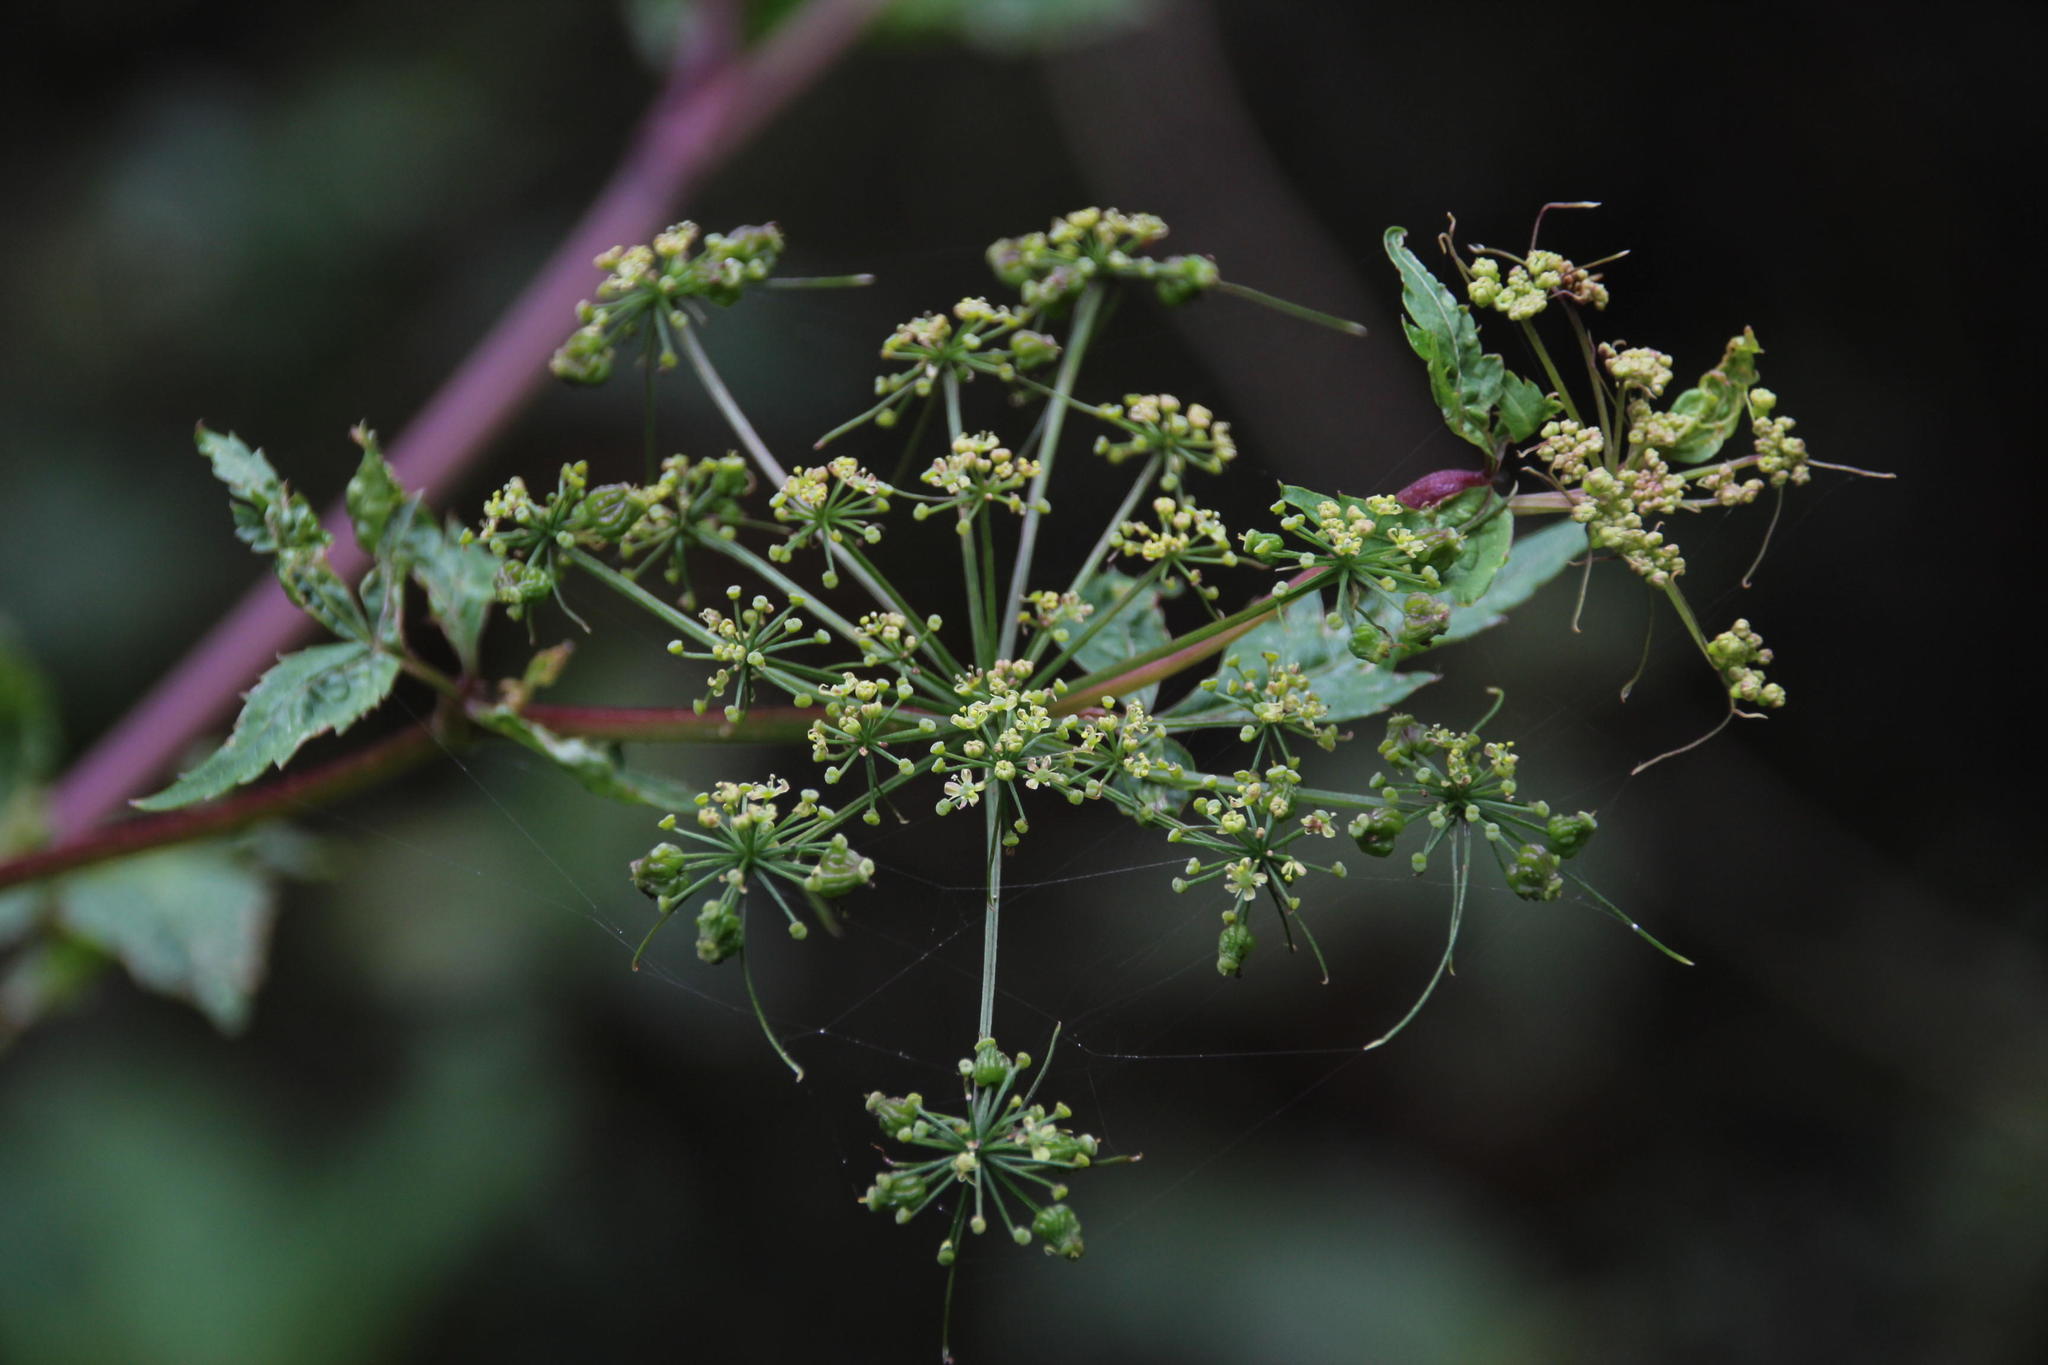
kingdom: Plantae
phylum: Tracheophyta
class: Magnoliopsida
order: Apiales
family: Apiaceae
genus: Neonelsonia
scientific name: Neonelsonia acuminata
